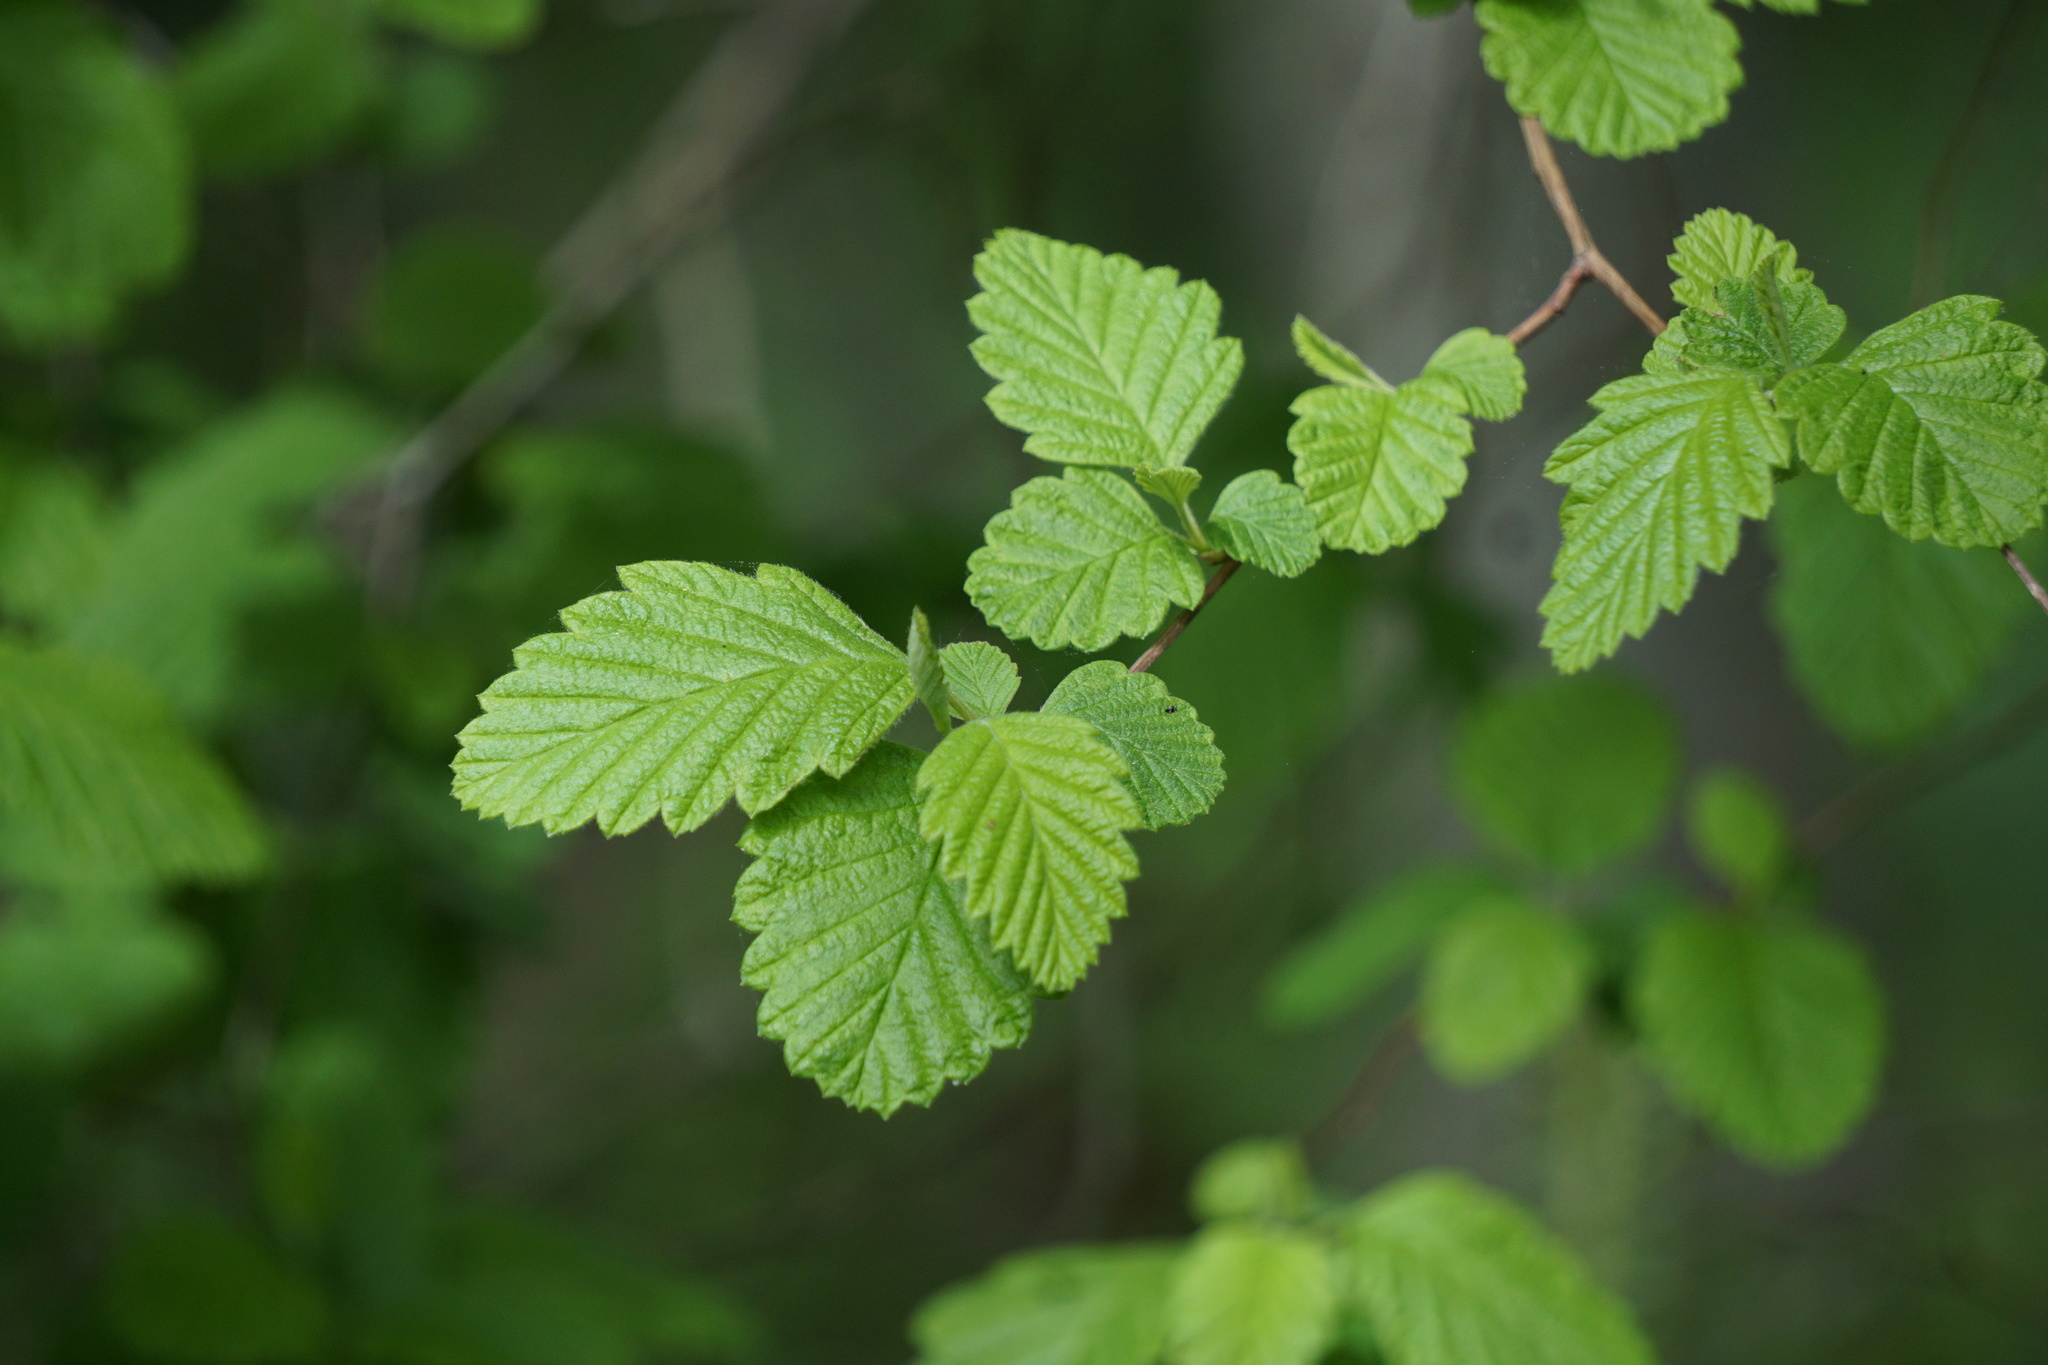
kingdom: Plantae
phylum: Tracheophyta
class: Magnoliopsida
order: Rosales
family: Rosaceae
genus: Holodiscus
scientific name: Holodiscus discolor
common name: Oceanspray
